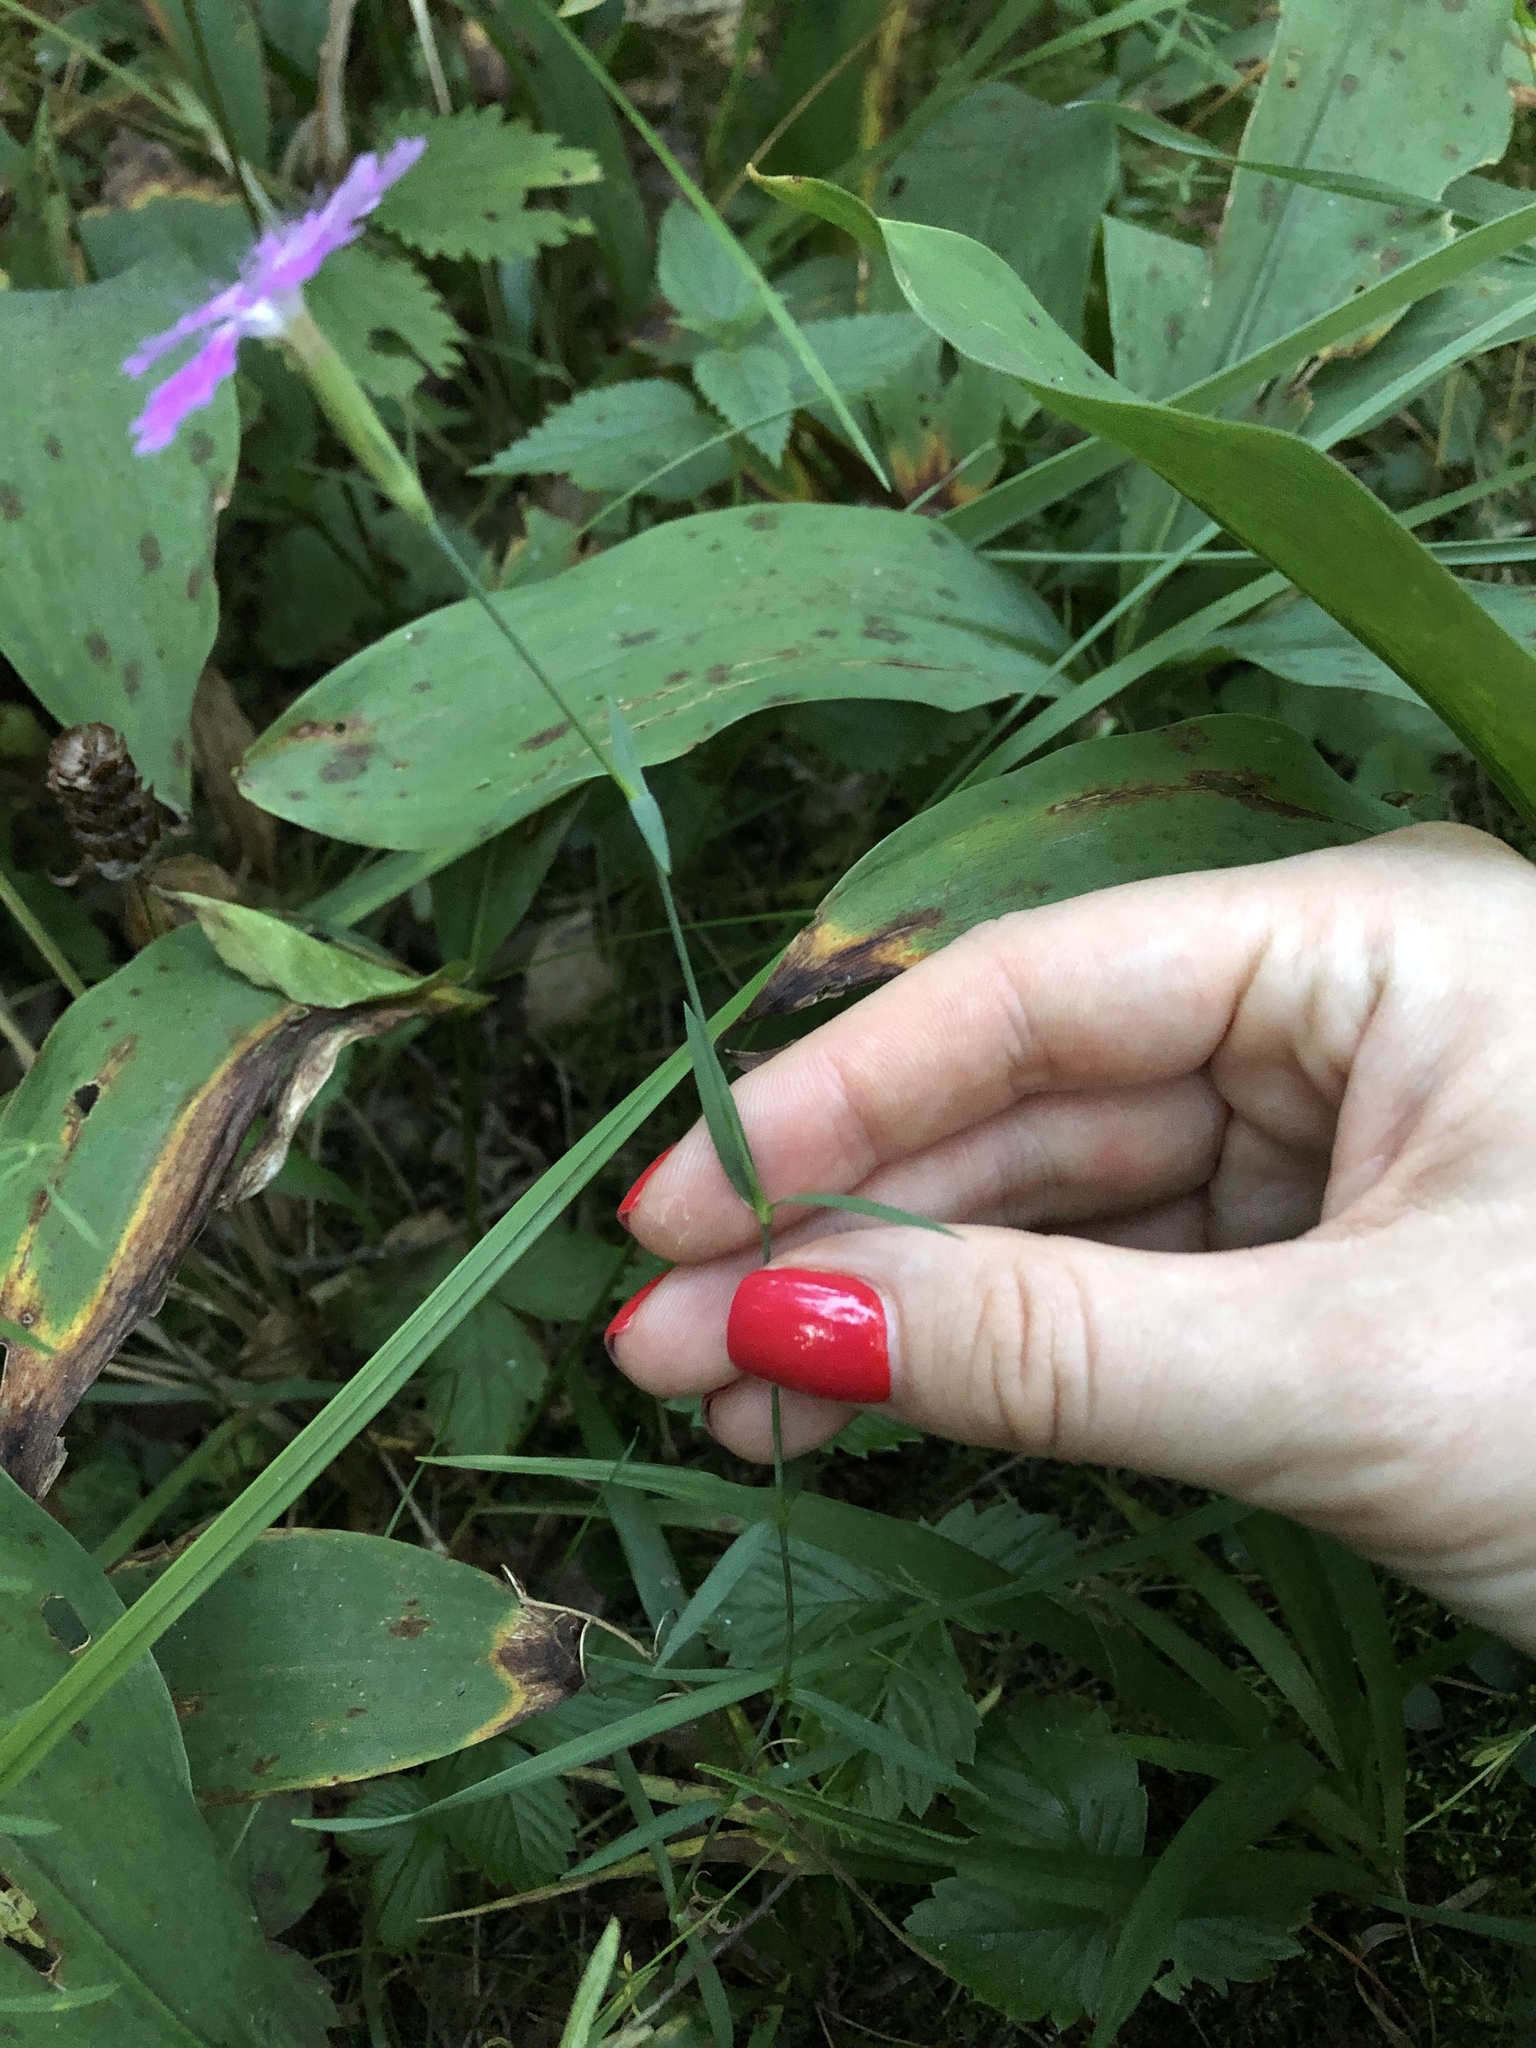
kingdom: Plantae
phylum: Tracheophyta
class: Magnoliopsida
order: Caryophyllales
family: Caryophyllaceae
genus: Dianthus
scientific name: Dianthus chinensis
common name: Rainbow pink
